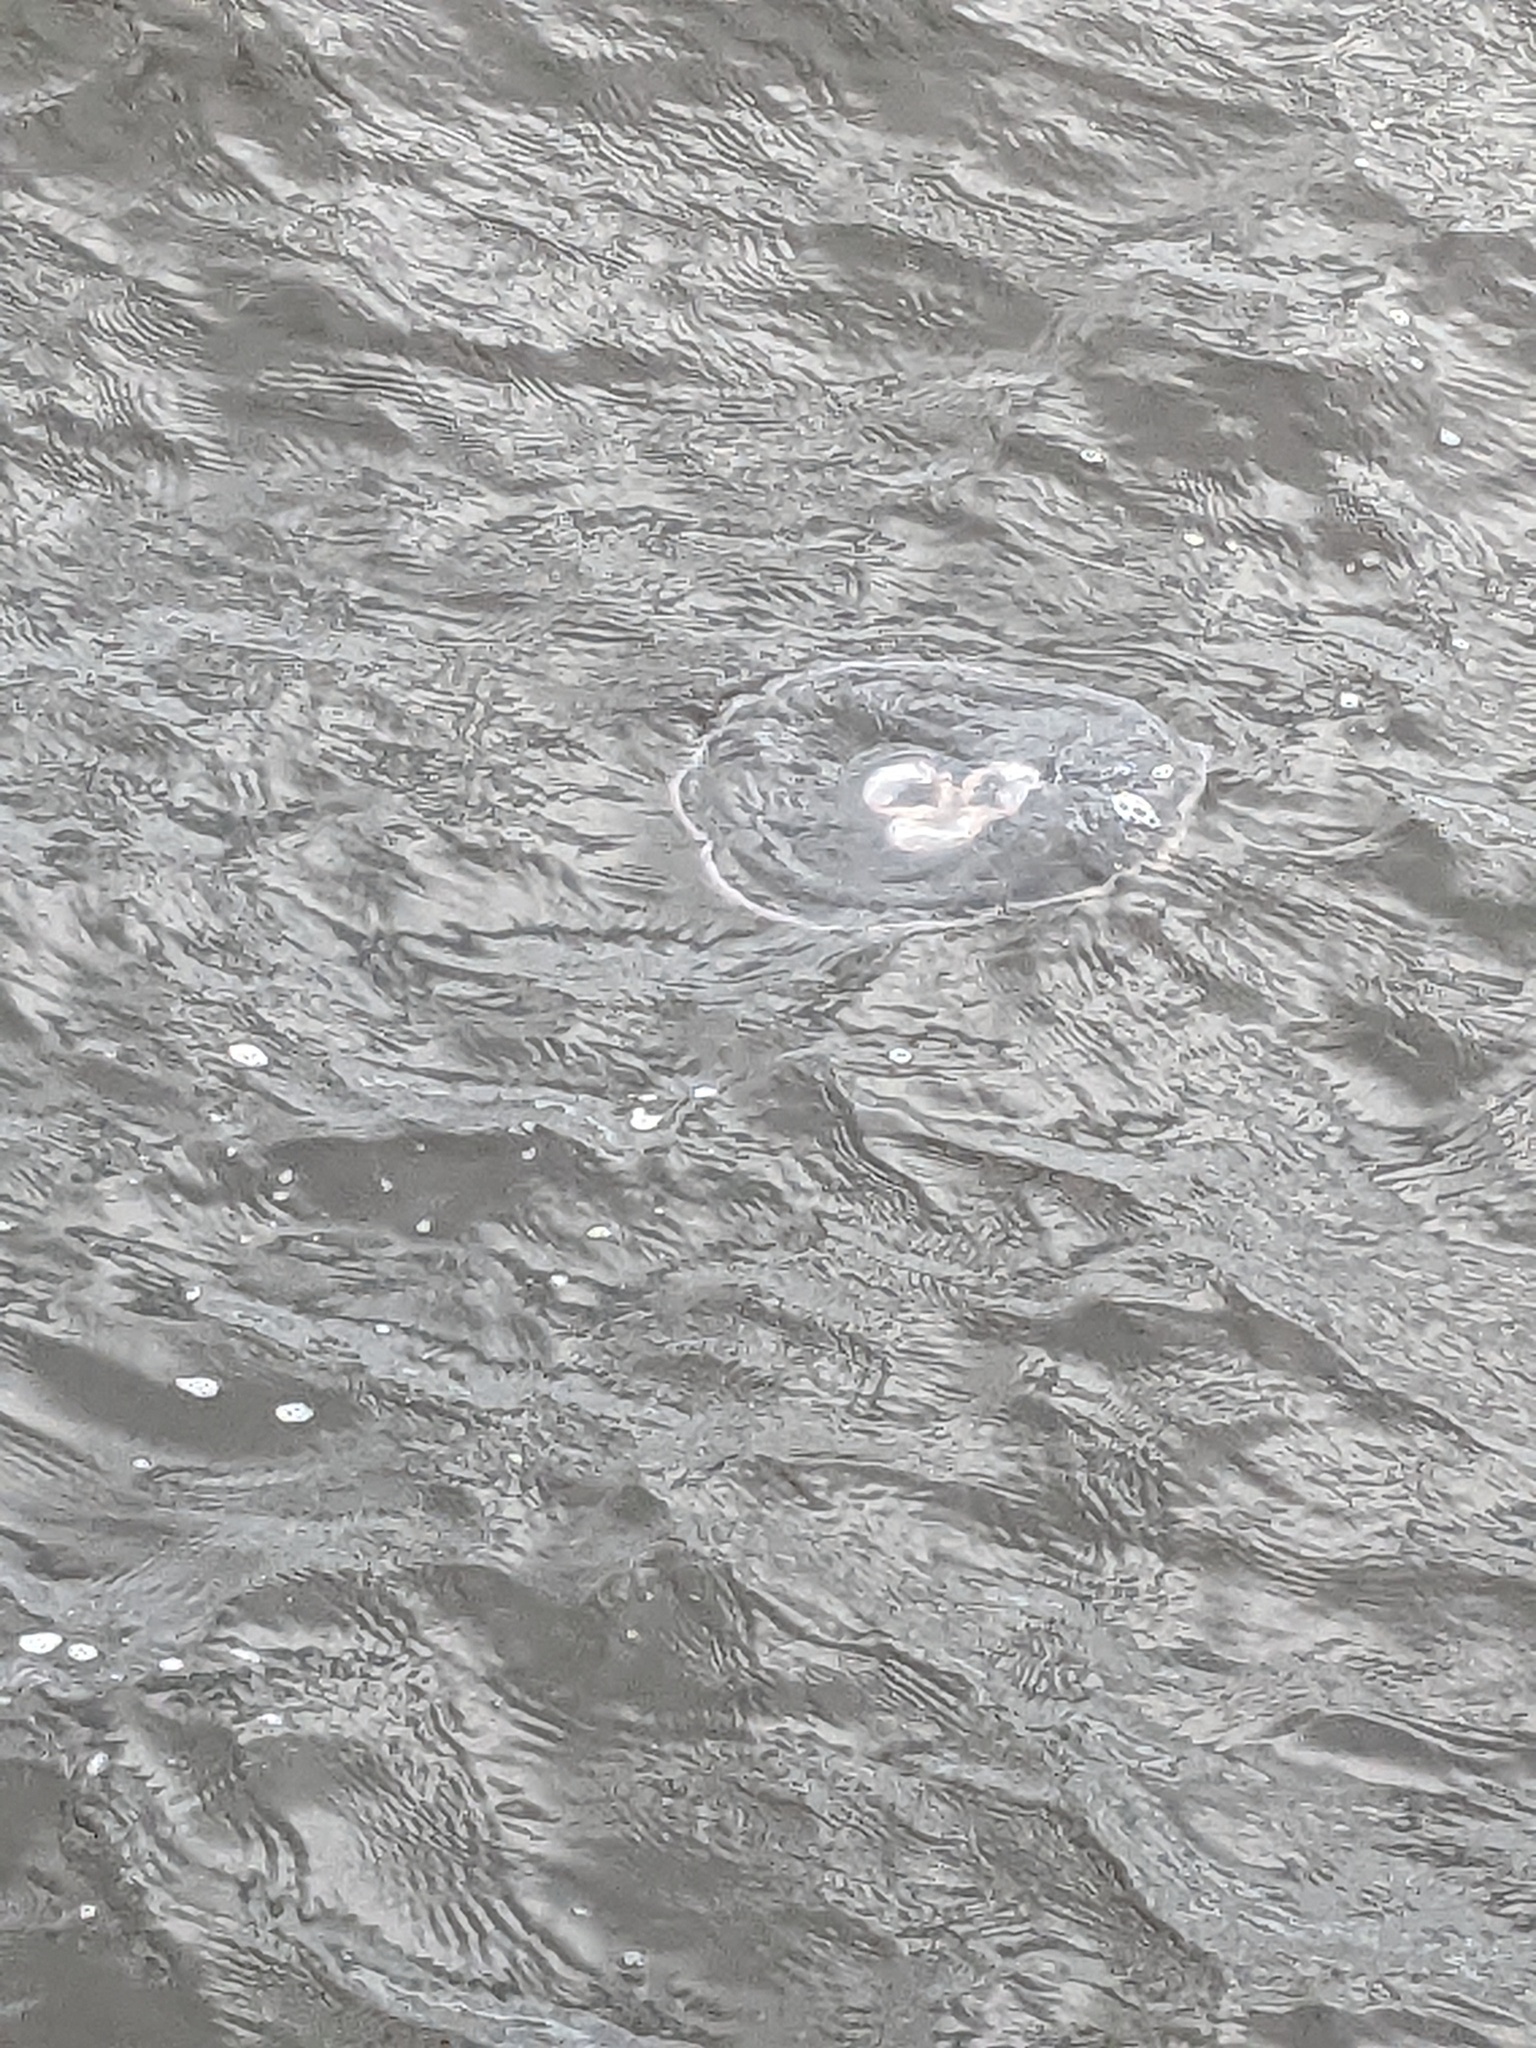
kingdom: Animalia
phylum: Cnidaria
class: Scyphozoa
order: Semaeostomeae
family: Ulmaridae
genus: Aurelia
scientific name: Aurelia marginalis
